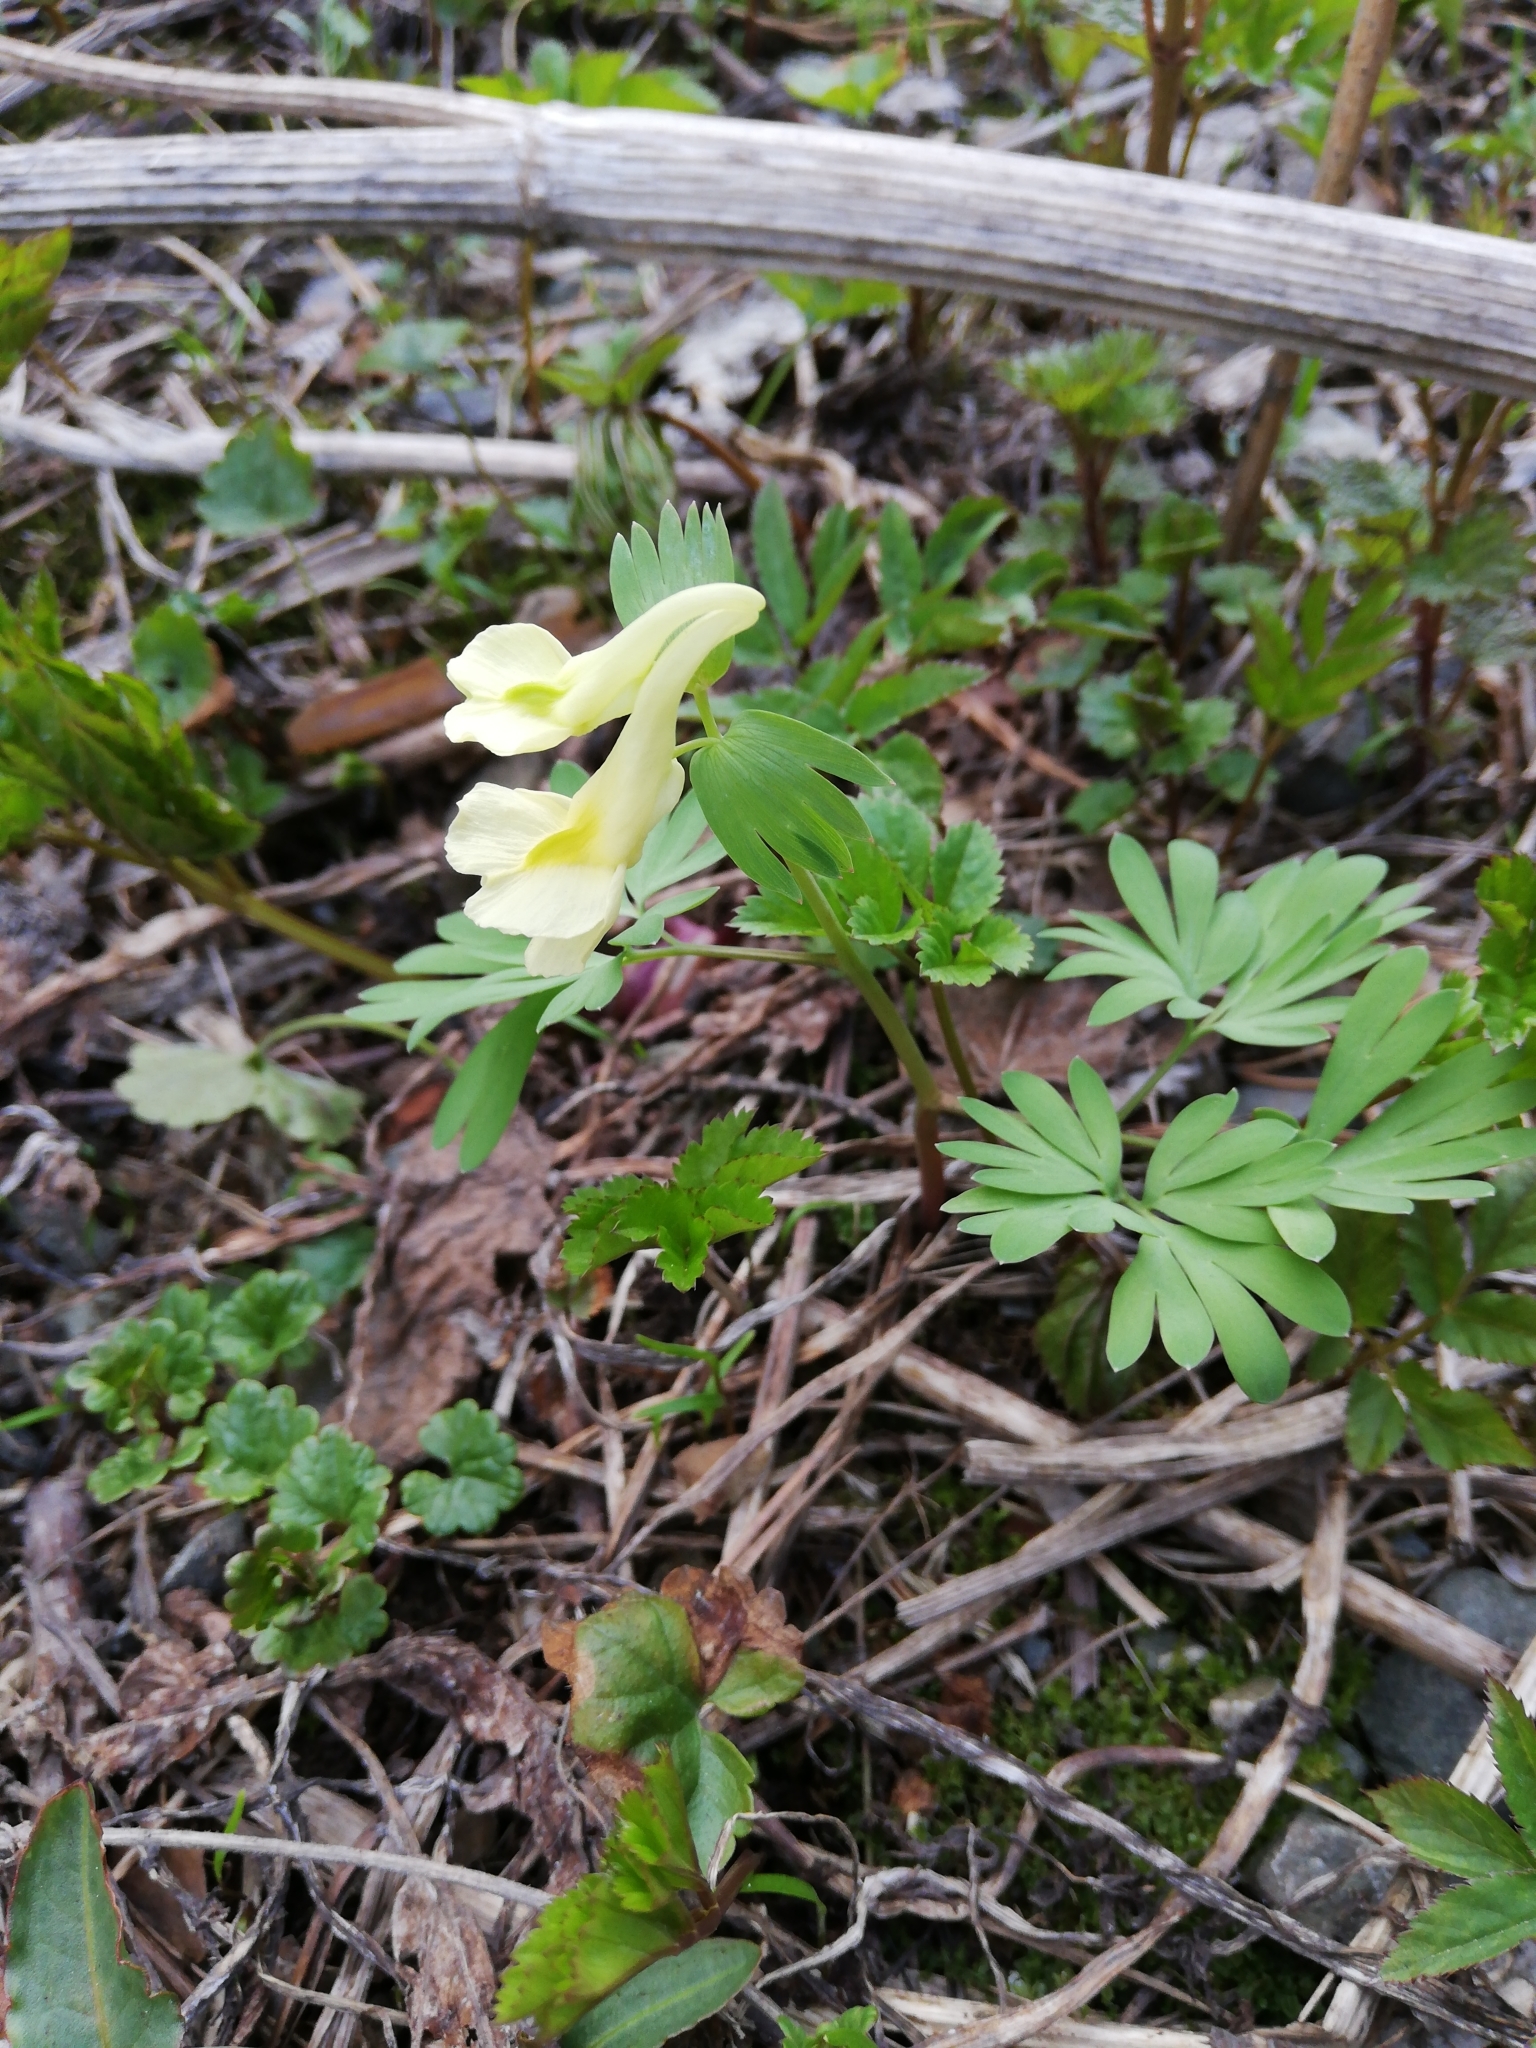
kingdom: Plantae
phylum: Tracheophyta
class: Magnoliopsida
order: Ranunculales
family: Papaveraceae
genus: Corydalis
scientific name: Corydalis bracteata
